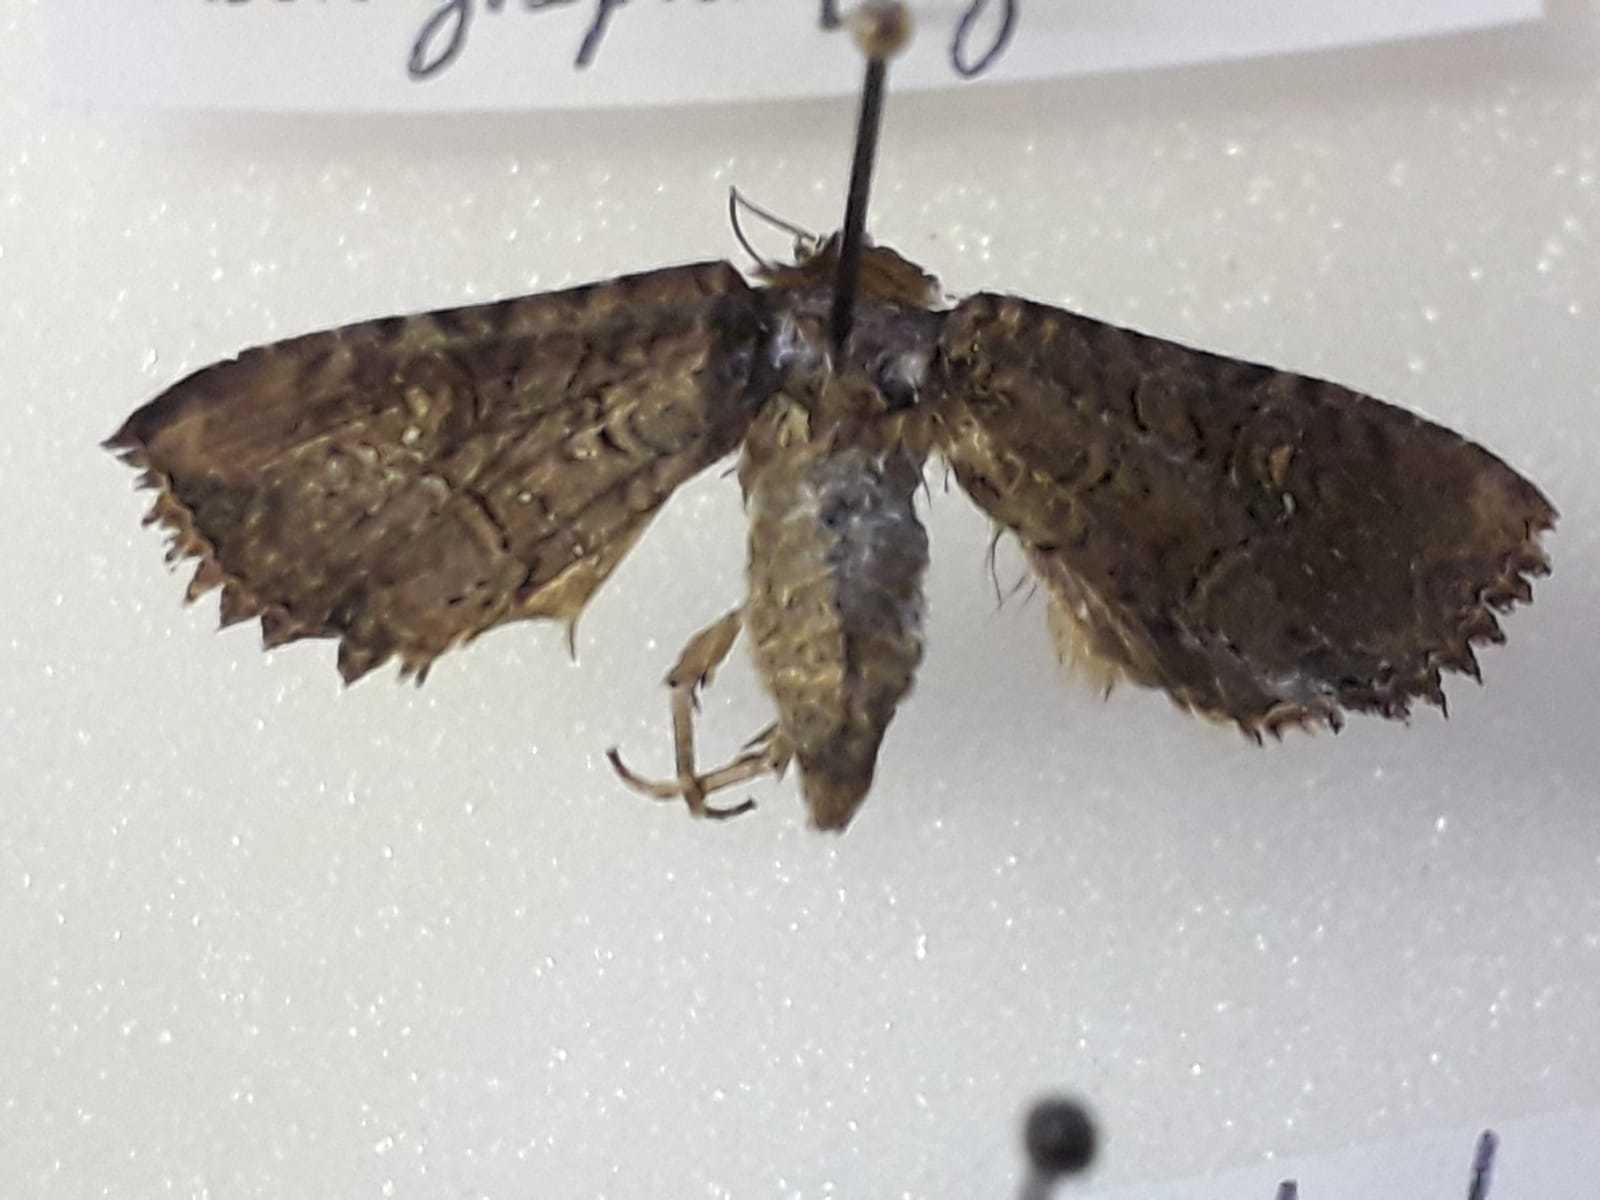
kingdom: Animalia
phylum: Arthropoda
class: Insecta
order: Lepidoptera
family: Noctuidae
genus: Mesapamea
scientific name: Mesapamea
